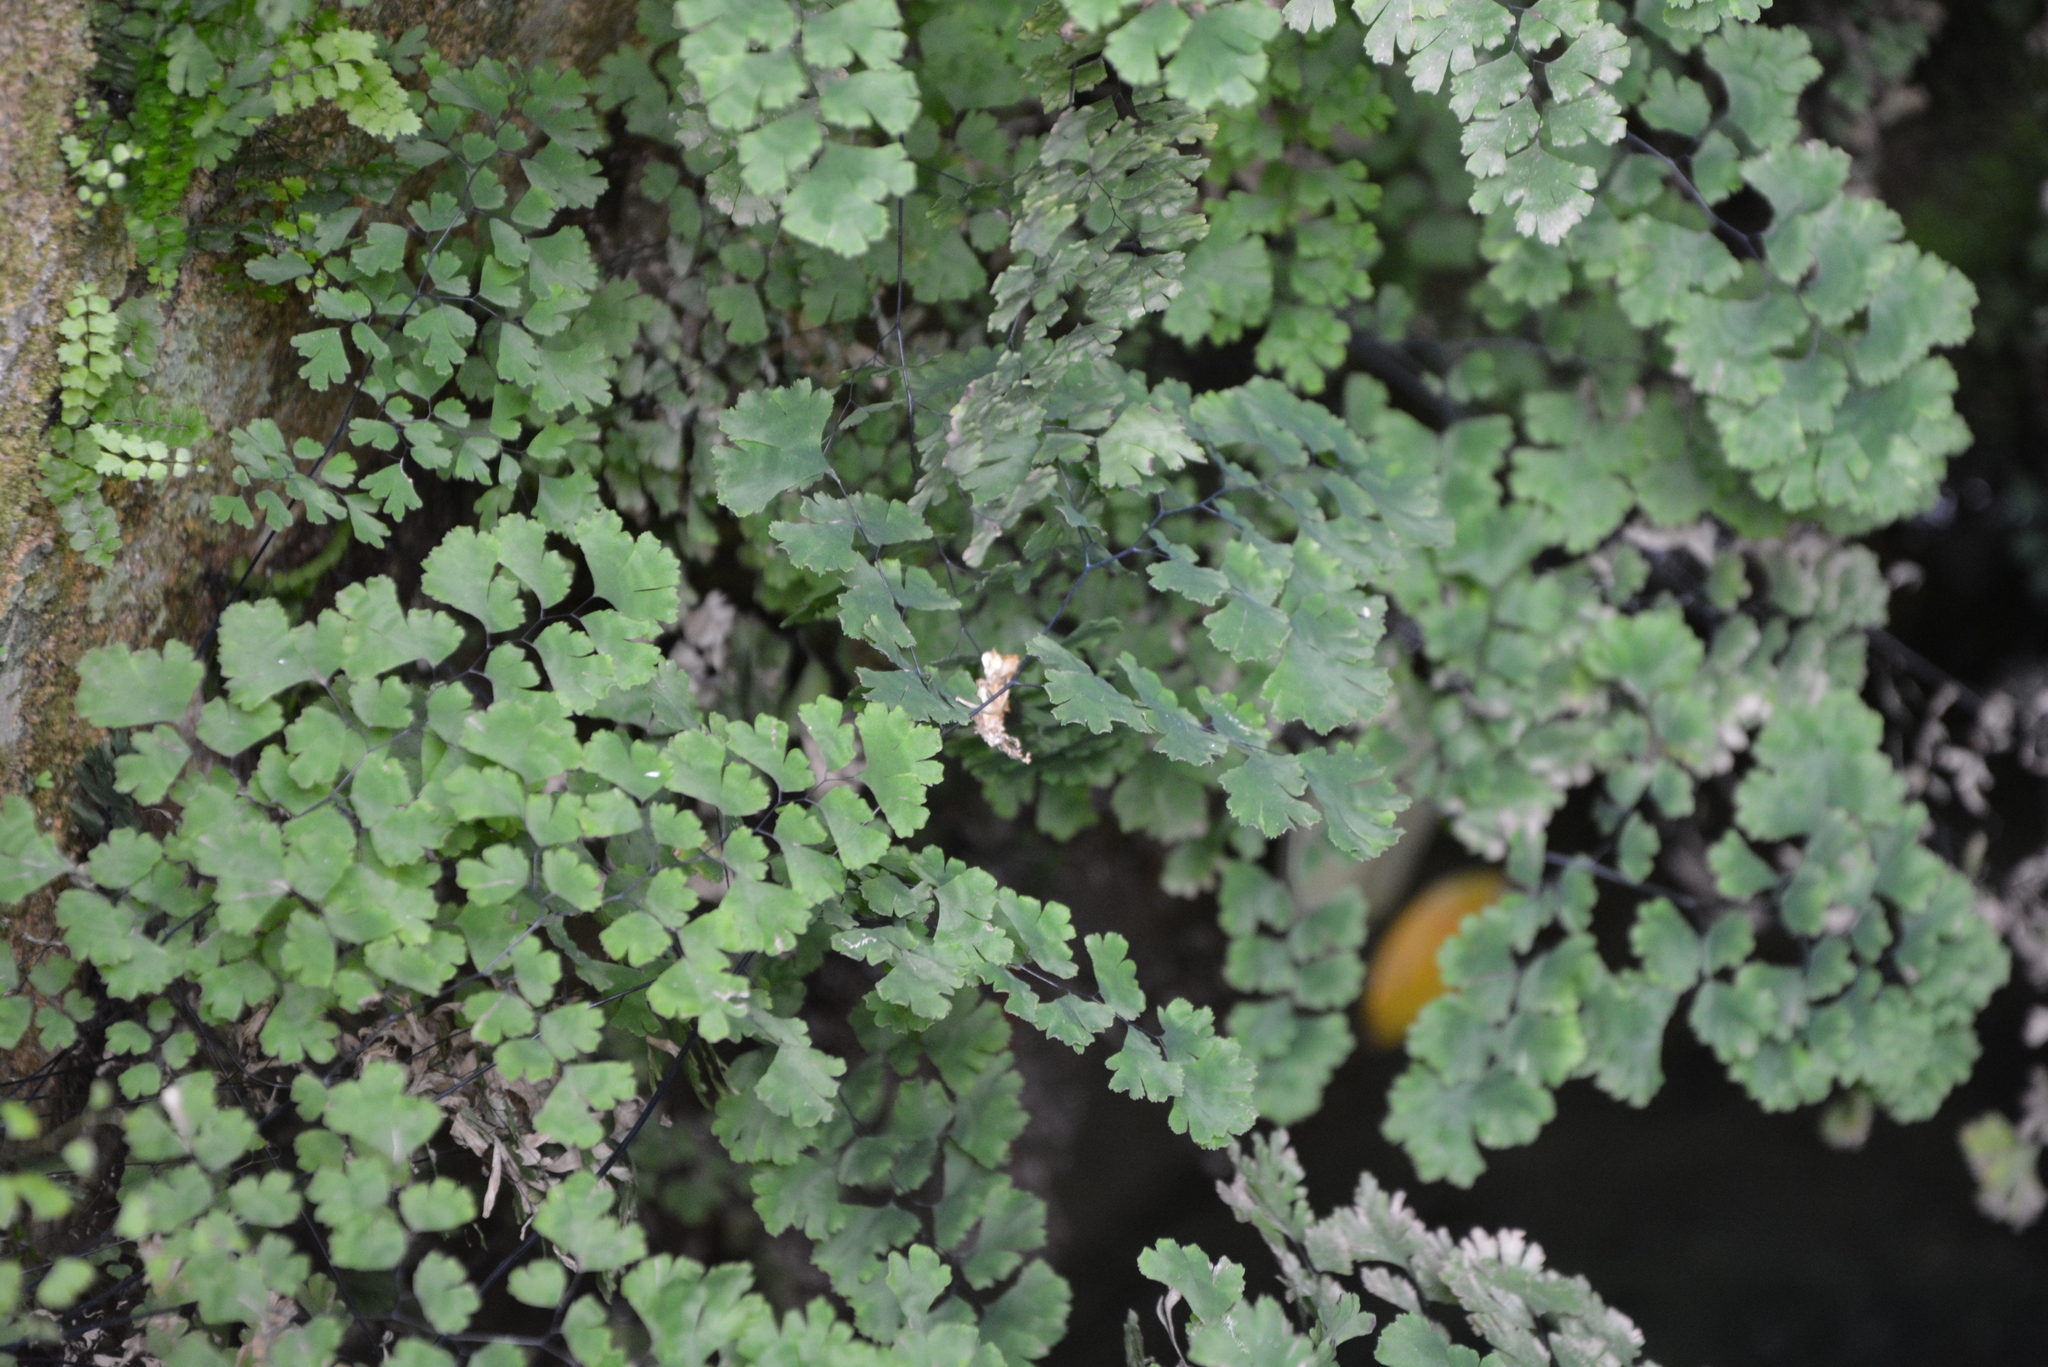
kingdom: Plantae
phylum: Tracheophyta
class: Polypodiopsida
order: Polypodiales
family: Pteridaceae
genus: Adiantum
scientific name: Adiantum capillus-veneris
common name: Maidenhair fern
